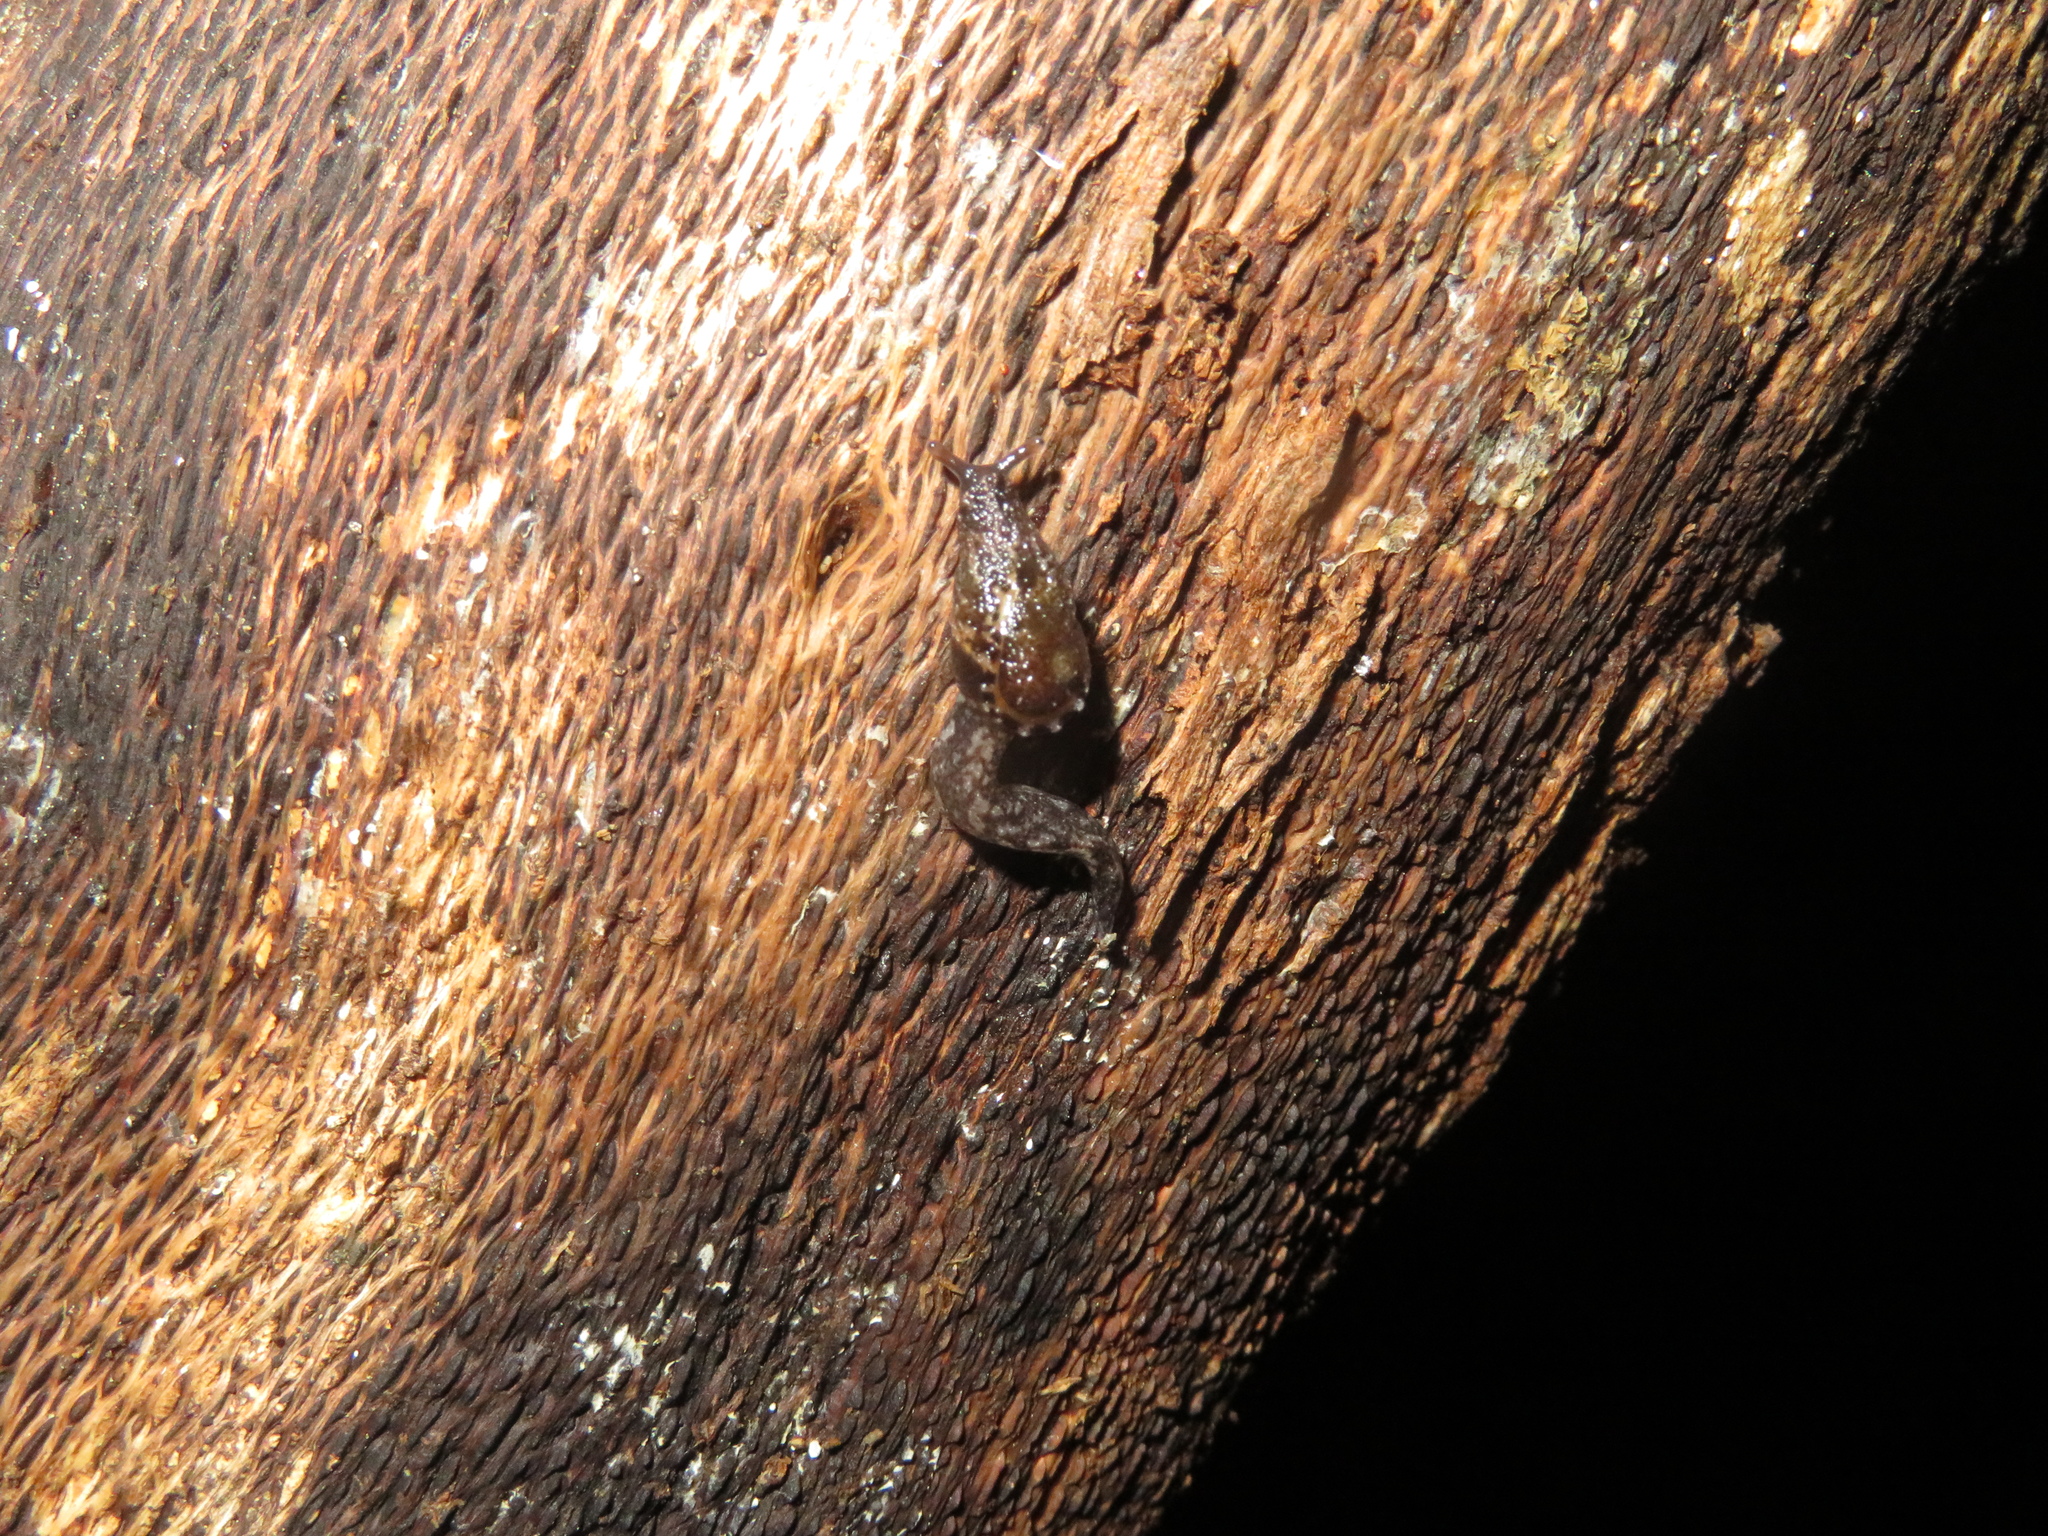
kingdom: Animalia
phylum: Mollusca
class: Gastropoda
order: Stylommatophora
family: Charopidae
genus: Otoconcha
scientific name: Otoconcha dimidiata
